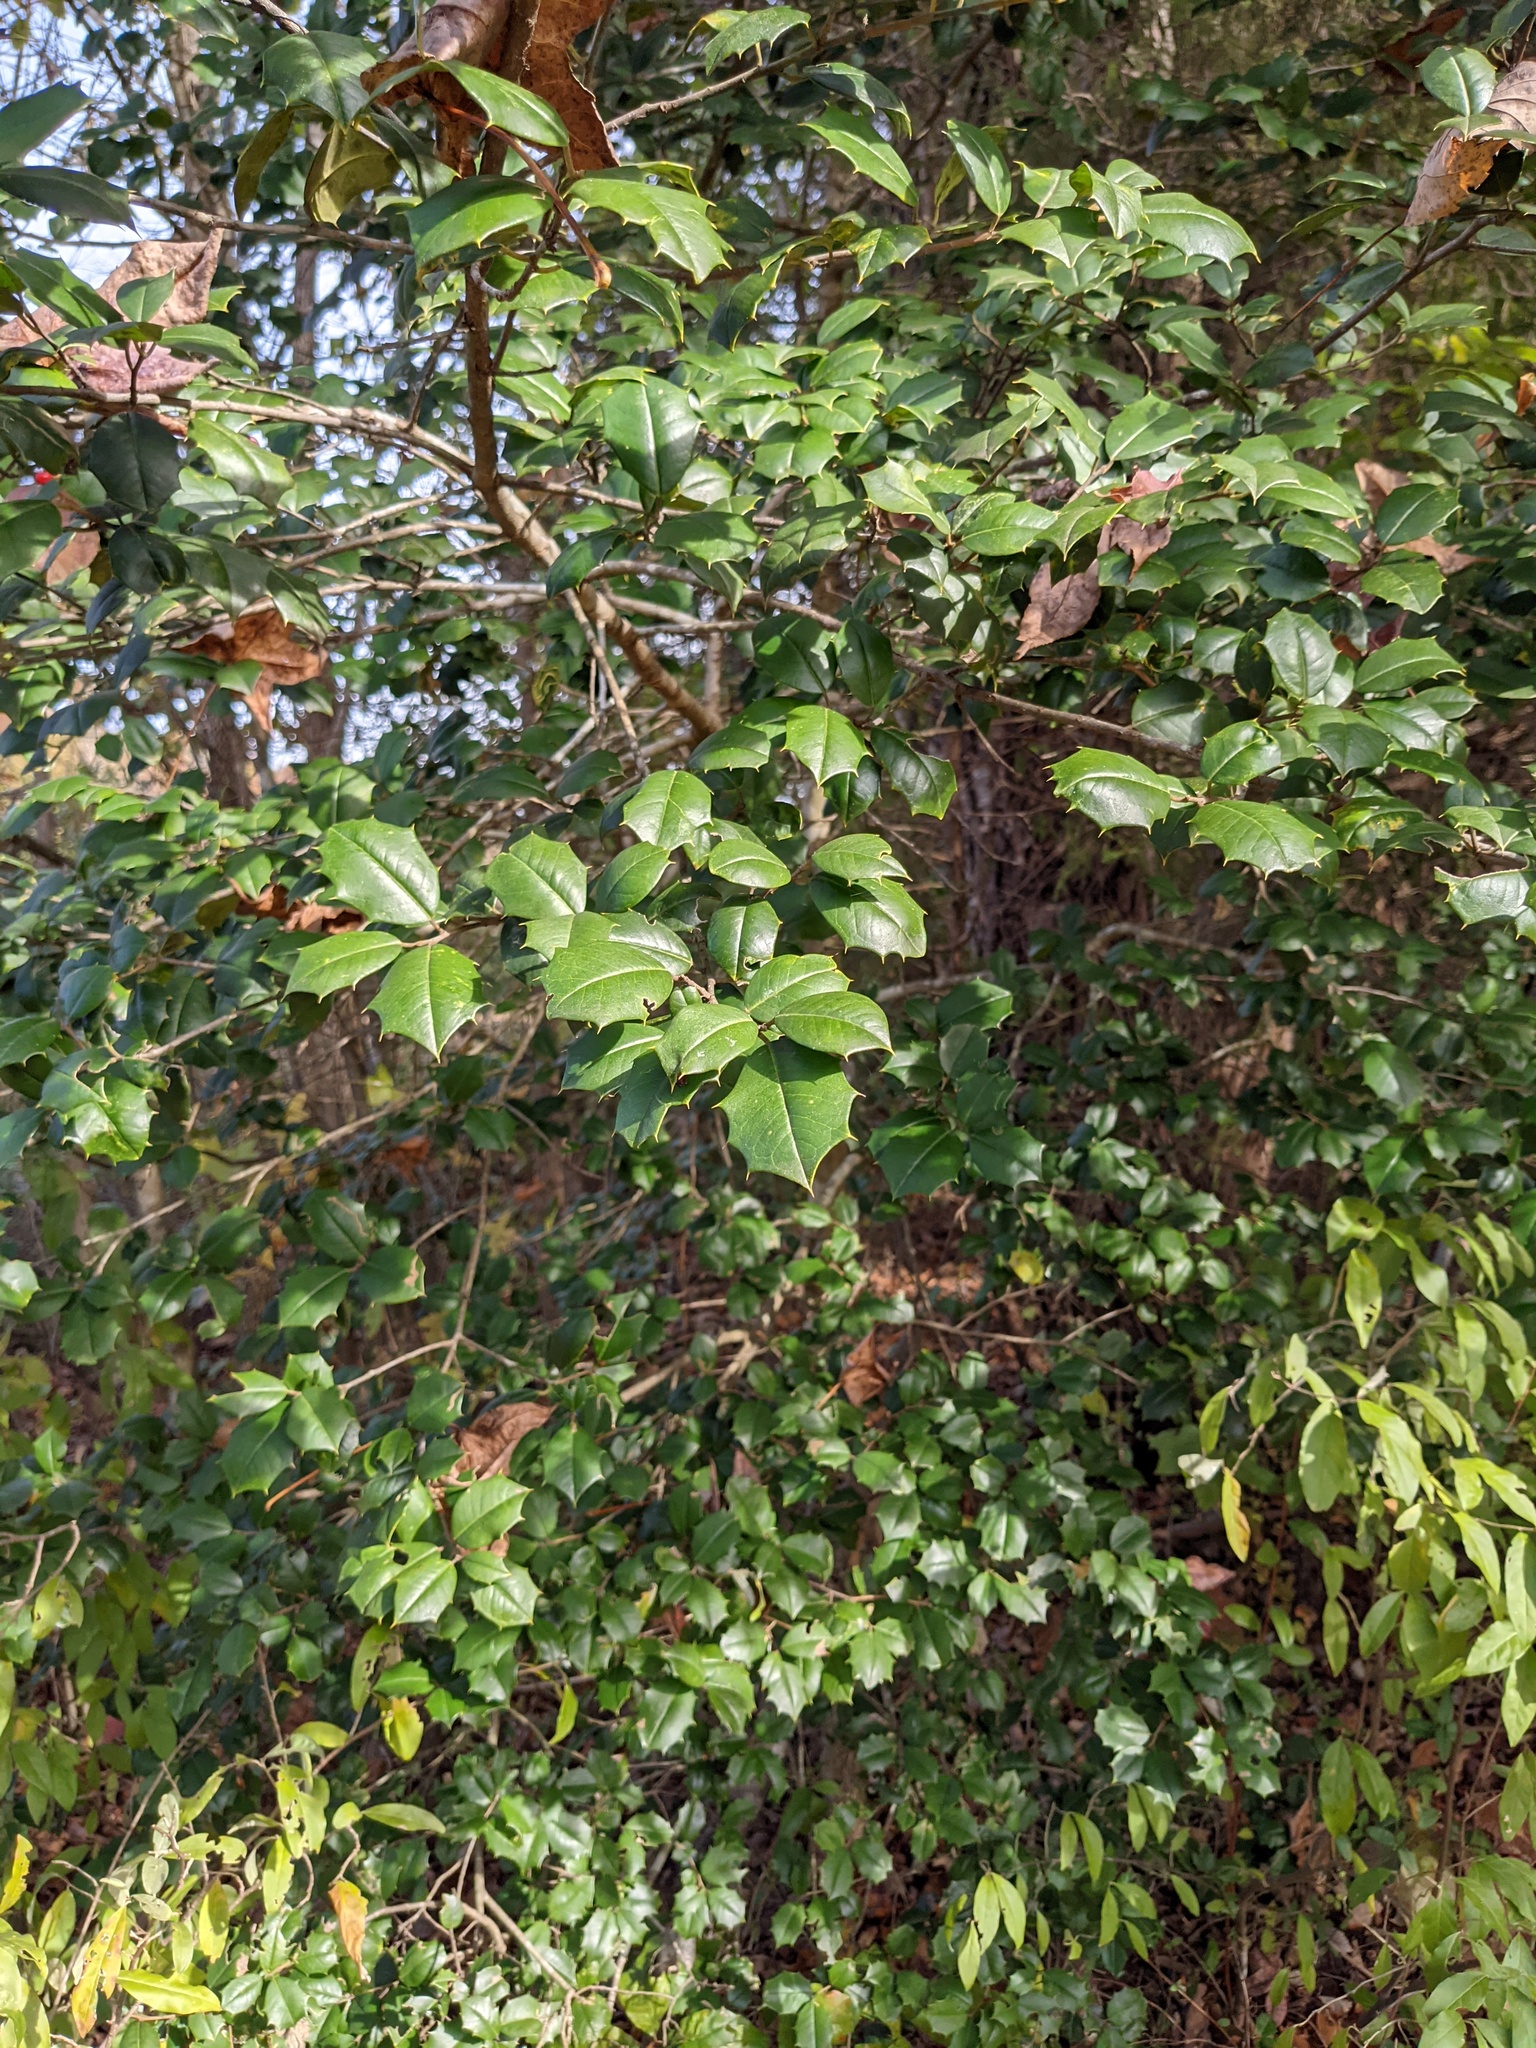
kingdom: Plantae
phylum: Tracheophyta
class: Magnoliopsida
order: Aquifoliales
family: Aquifoliaceae
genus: Ilex
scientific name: Ilex opaca
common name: American holly
